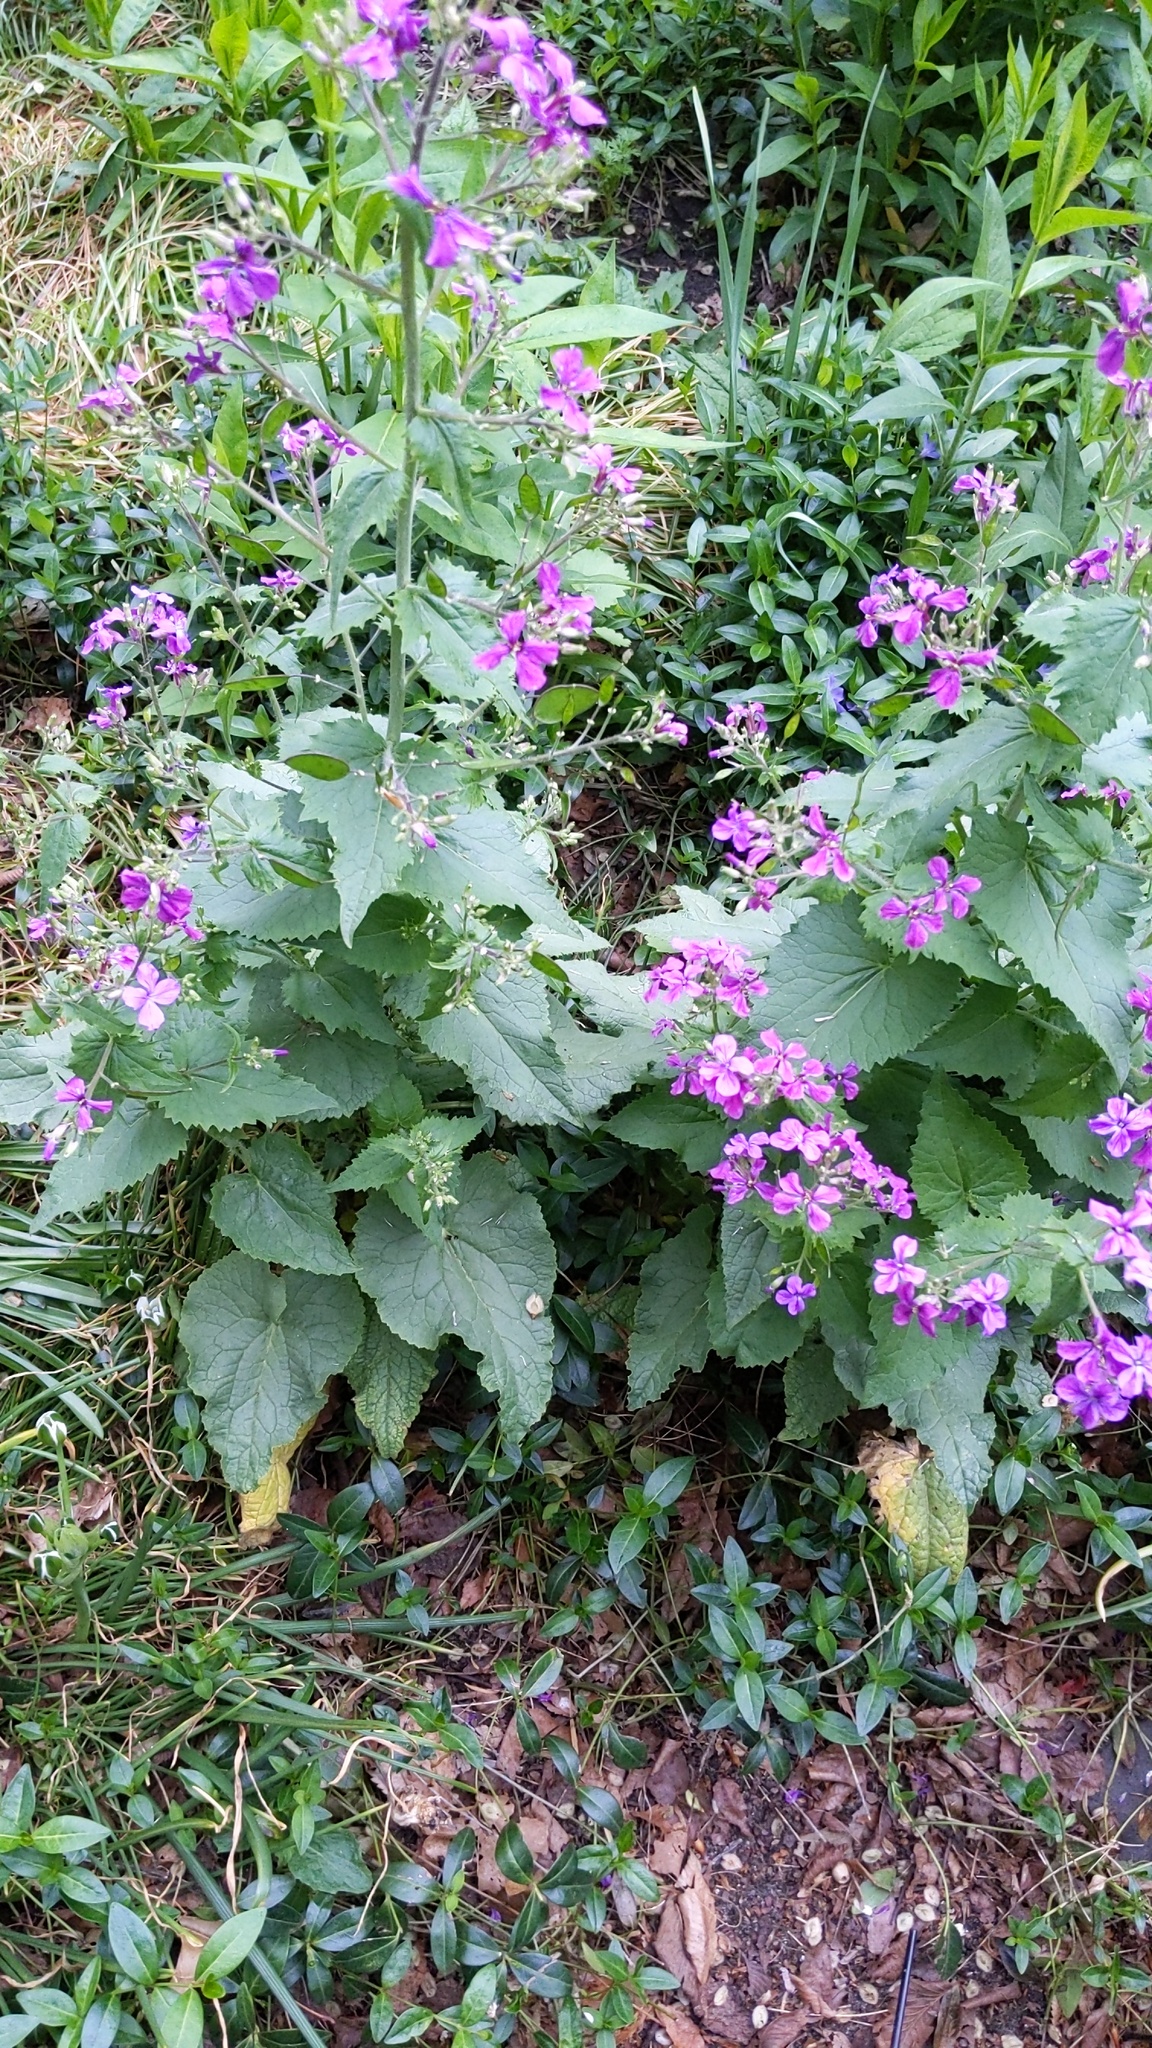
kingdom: Plantae
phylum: Tracheophyta
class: Magnoliopsida
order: Brassicales
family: Brassicaceae
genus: Lunaria
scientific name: Lunaria annua
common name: Honesty
